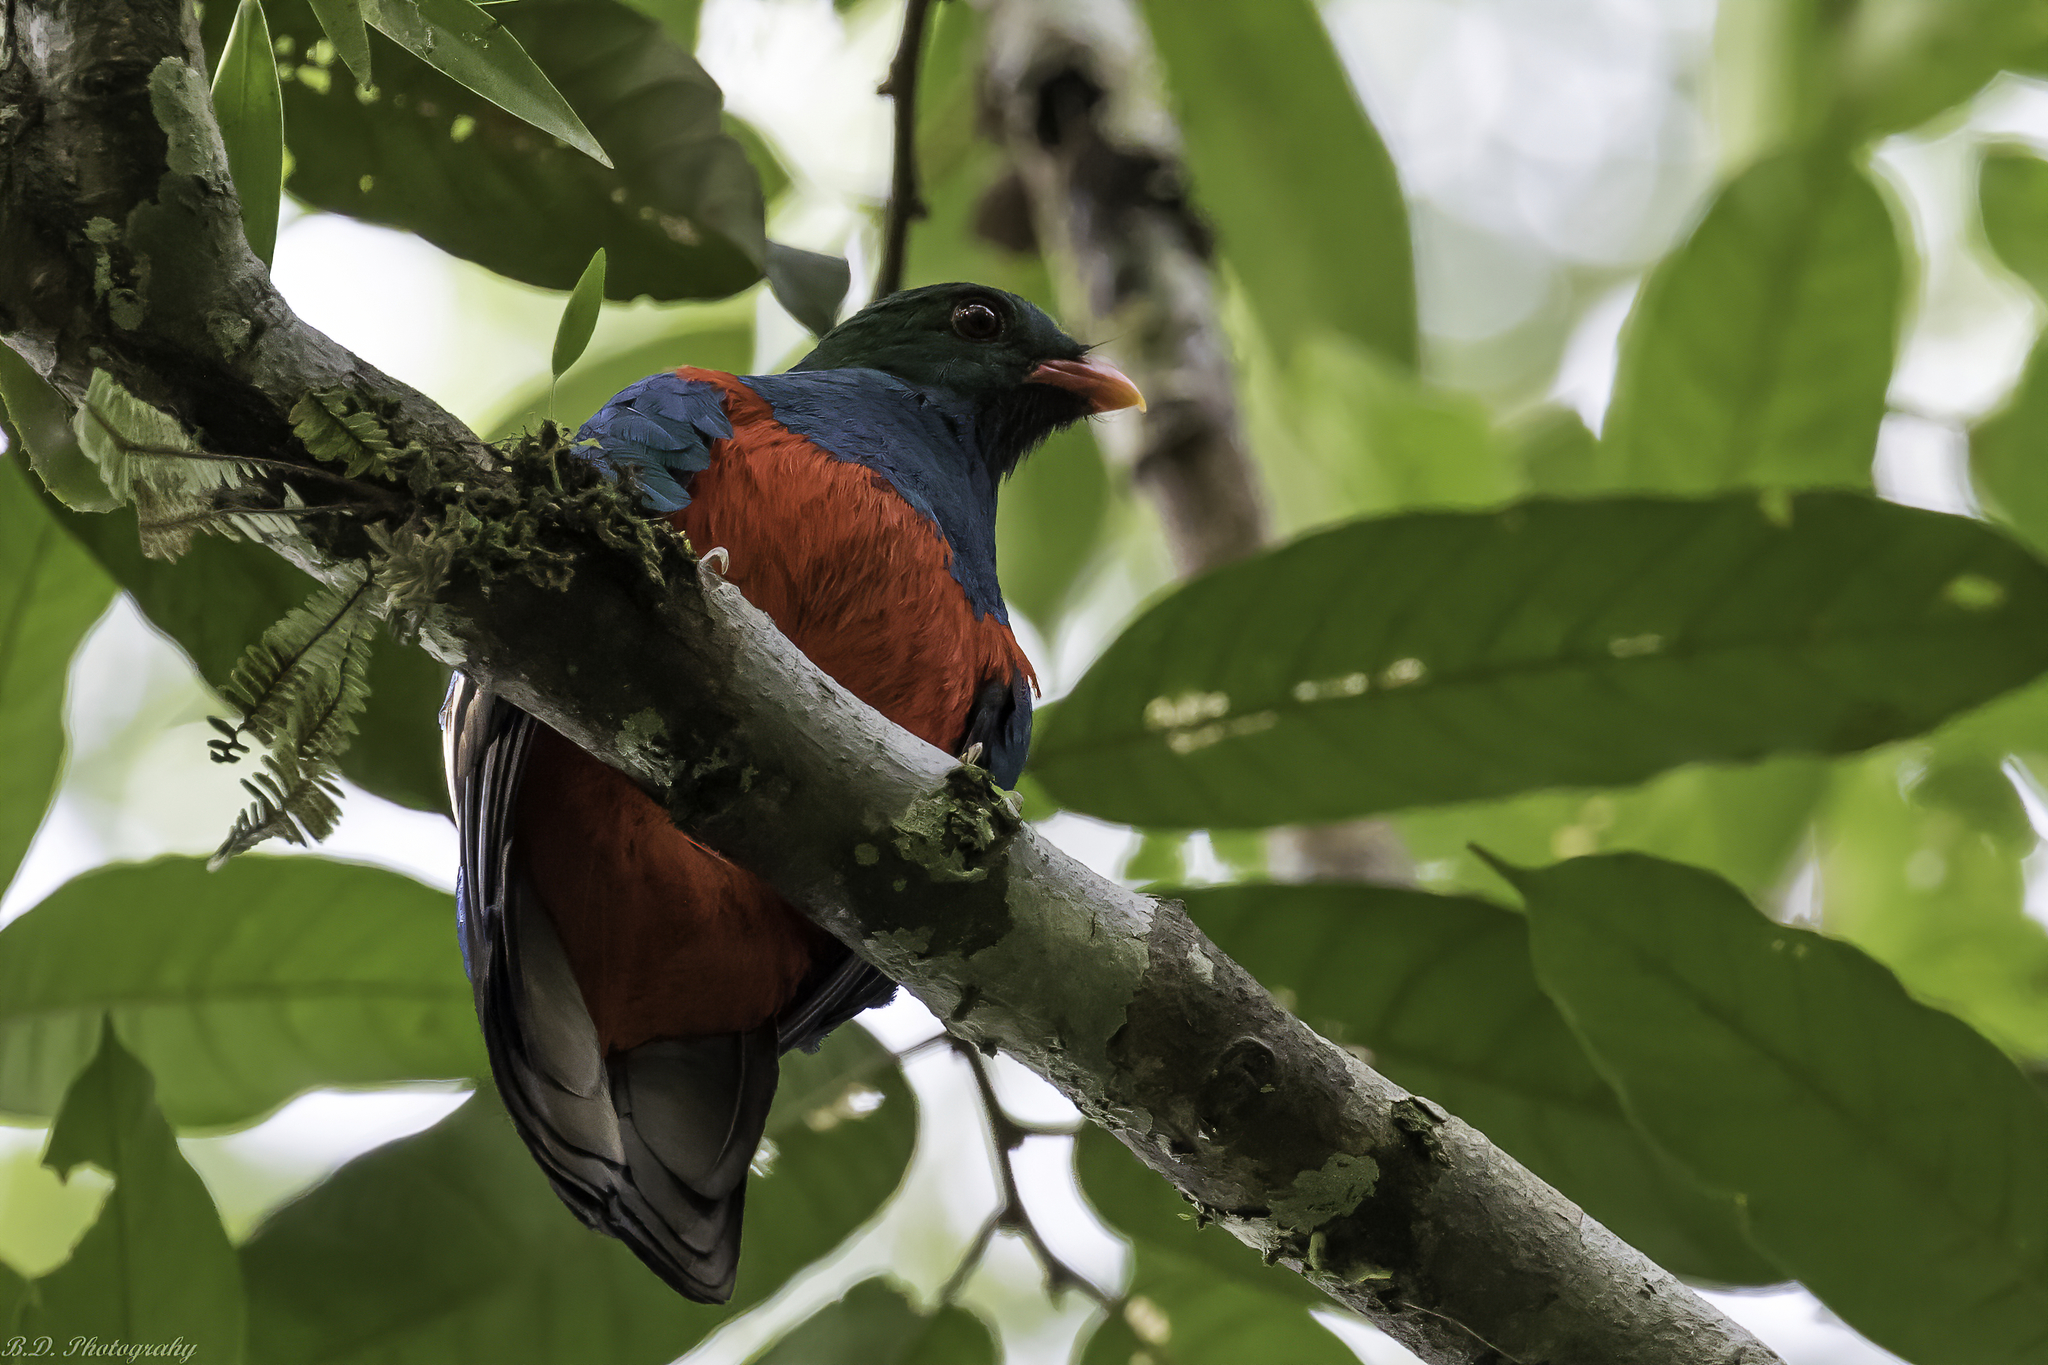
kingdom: Animalia
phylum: Chordata
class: Aves
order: Trogoniformes
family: Trogonidae
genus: Pharomachrus
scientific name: Pharomachrus pavoninus
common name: Pavonine quetzal
